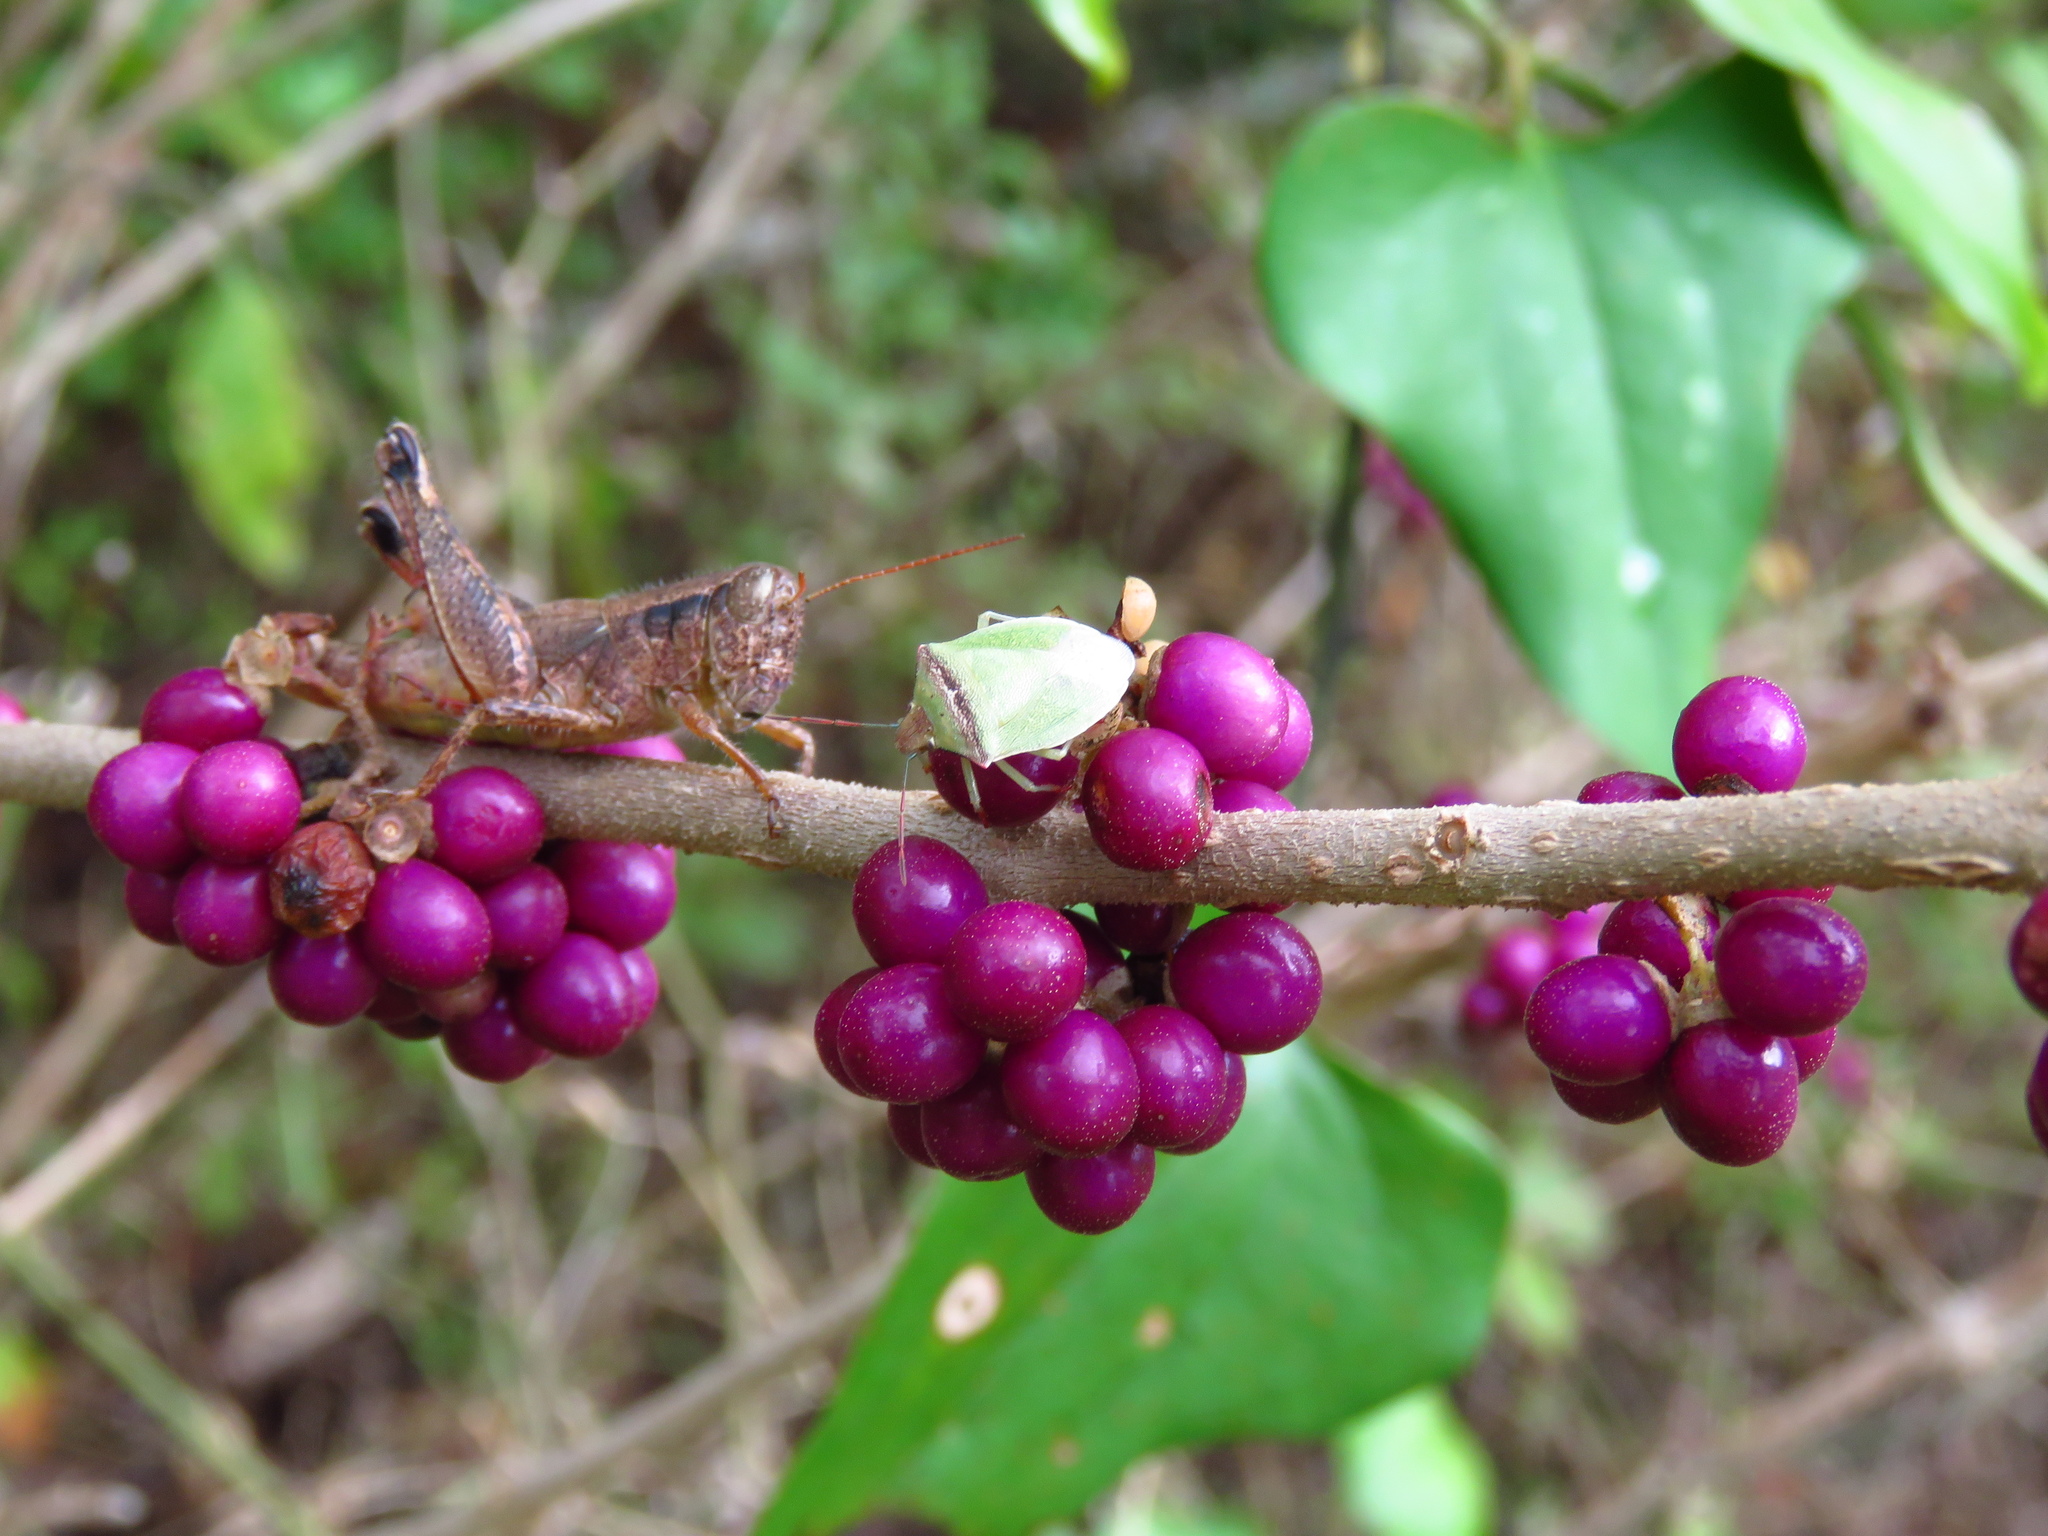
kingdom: Plantae
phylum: Tracheophyta
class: Magnoliopsida
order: Lamiales
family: Lamiaceae
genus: Callicarpa
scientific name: Callicarpa americana
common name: American beautyberry
